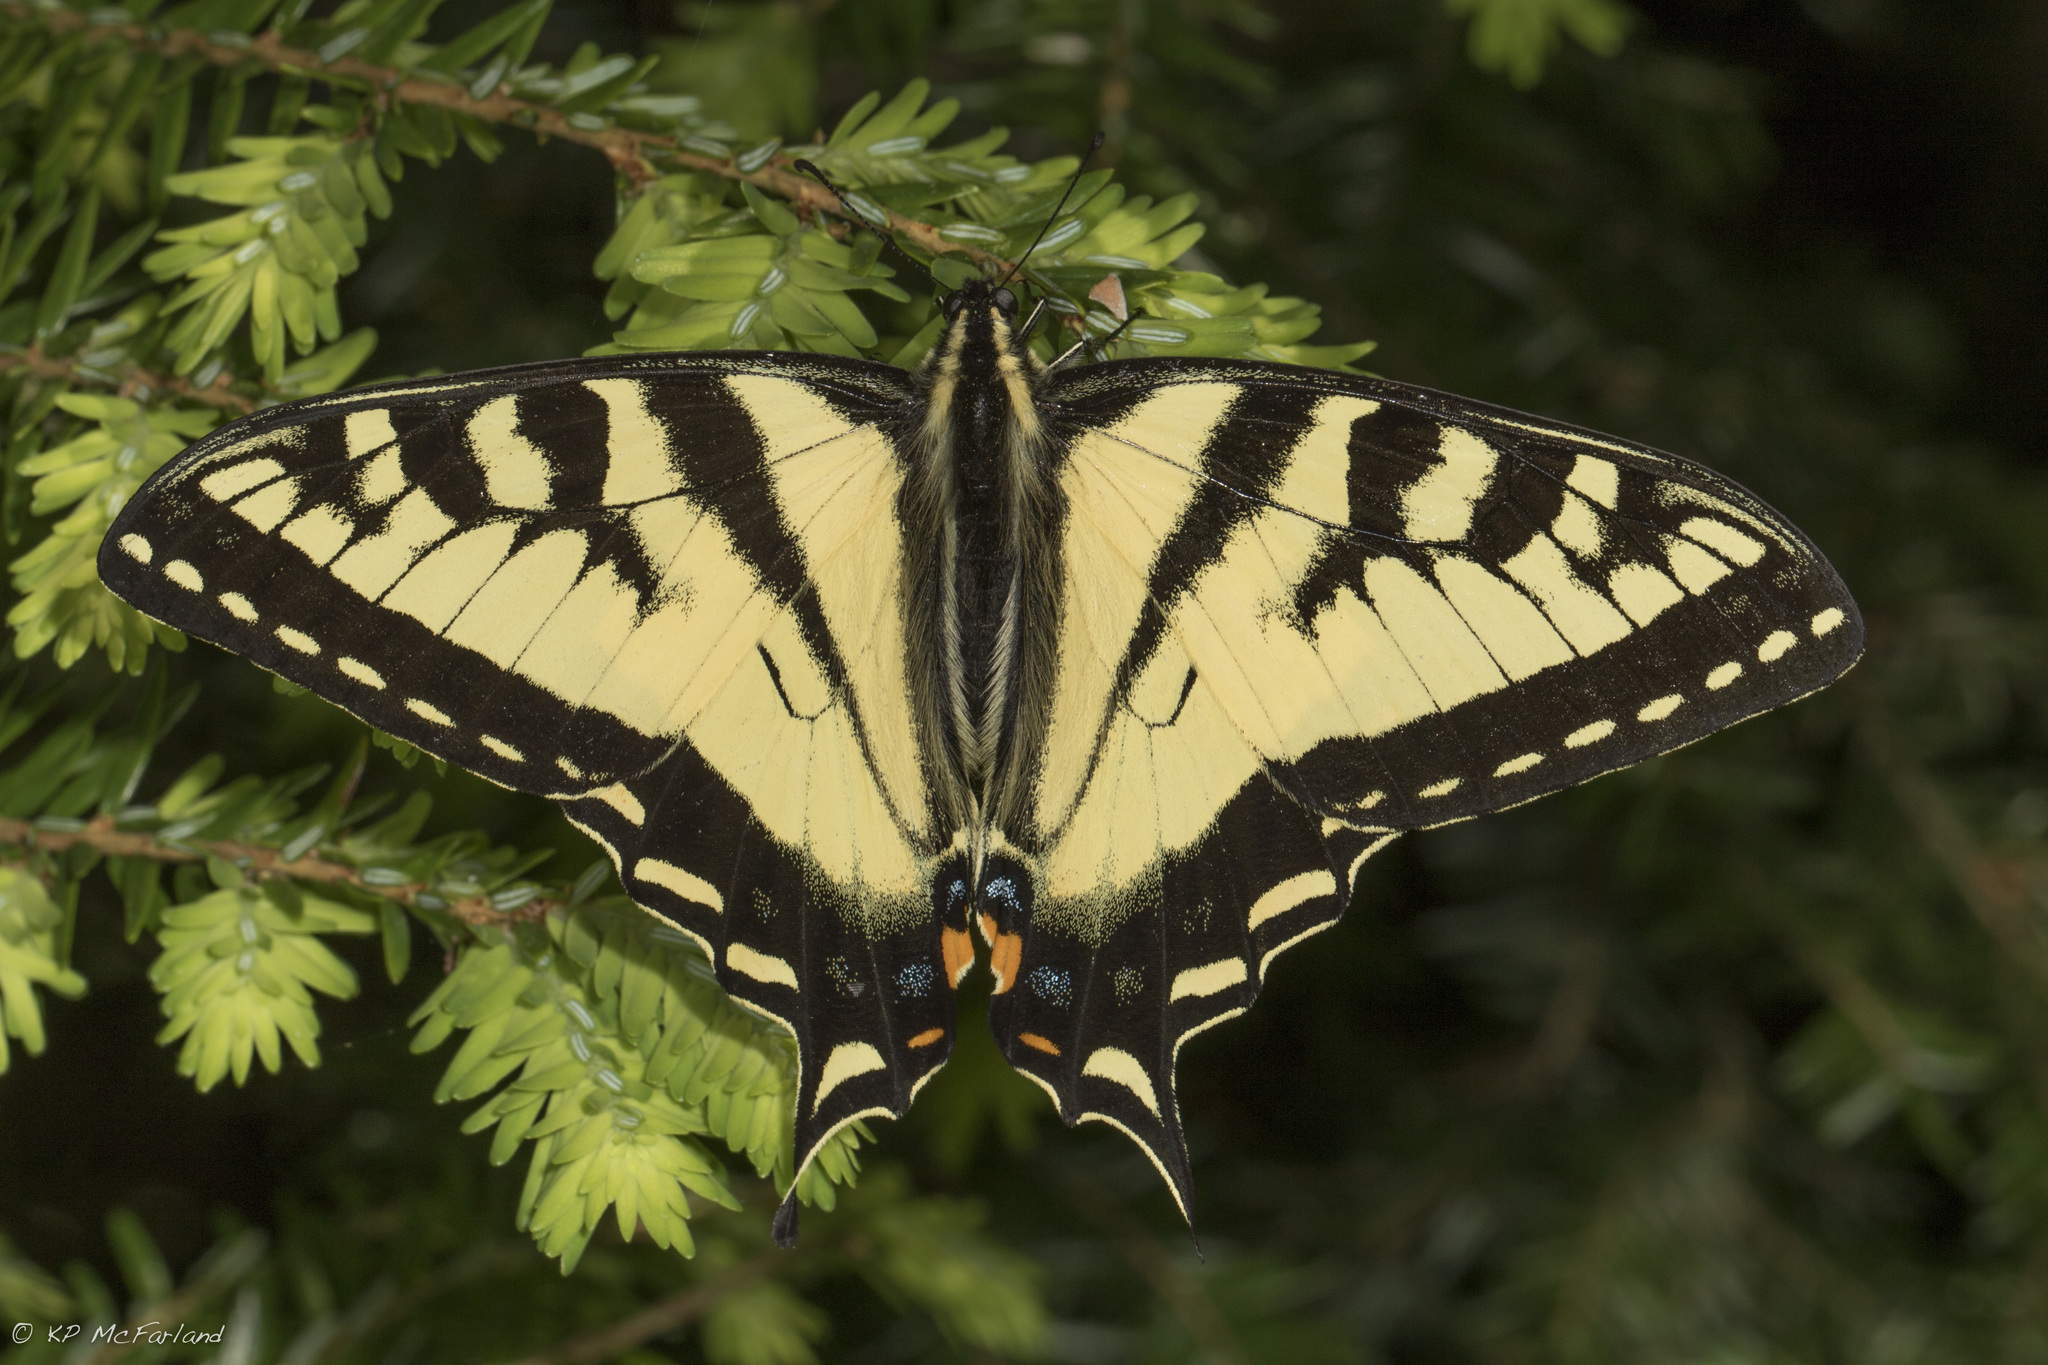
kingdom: Animalia
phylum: Arthropoda
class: Insecta
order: Lepidoptera
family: Papilionidae
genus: Papilio
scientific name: Papilio canadensis
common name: Canadian tiger swallowtail
